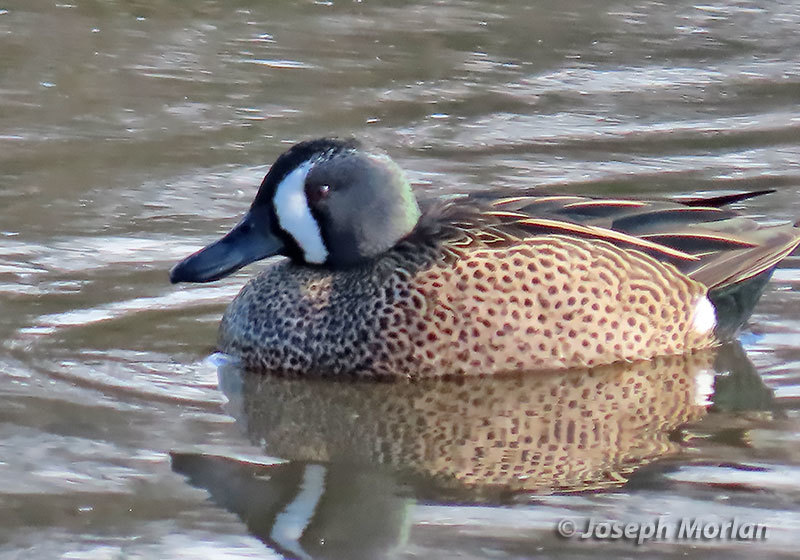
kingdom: Animalia
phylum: Chordata
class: Aves
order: Anseriformes
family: Anatidae
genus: Spatula
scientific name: Spatula discors
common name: Blue-winged teal
